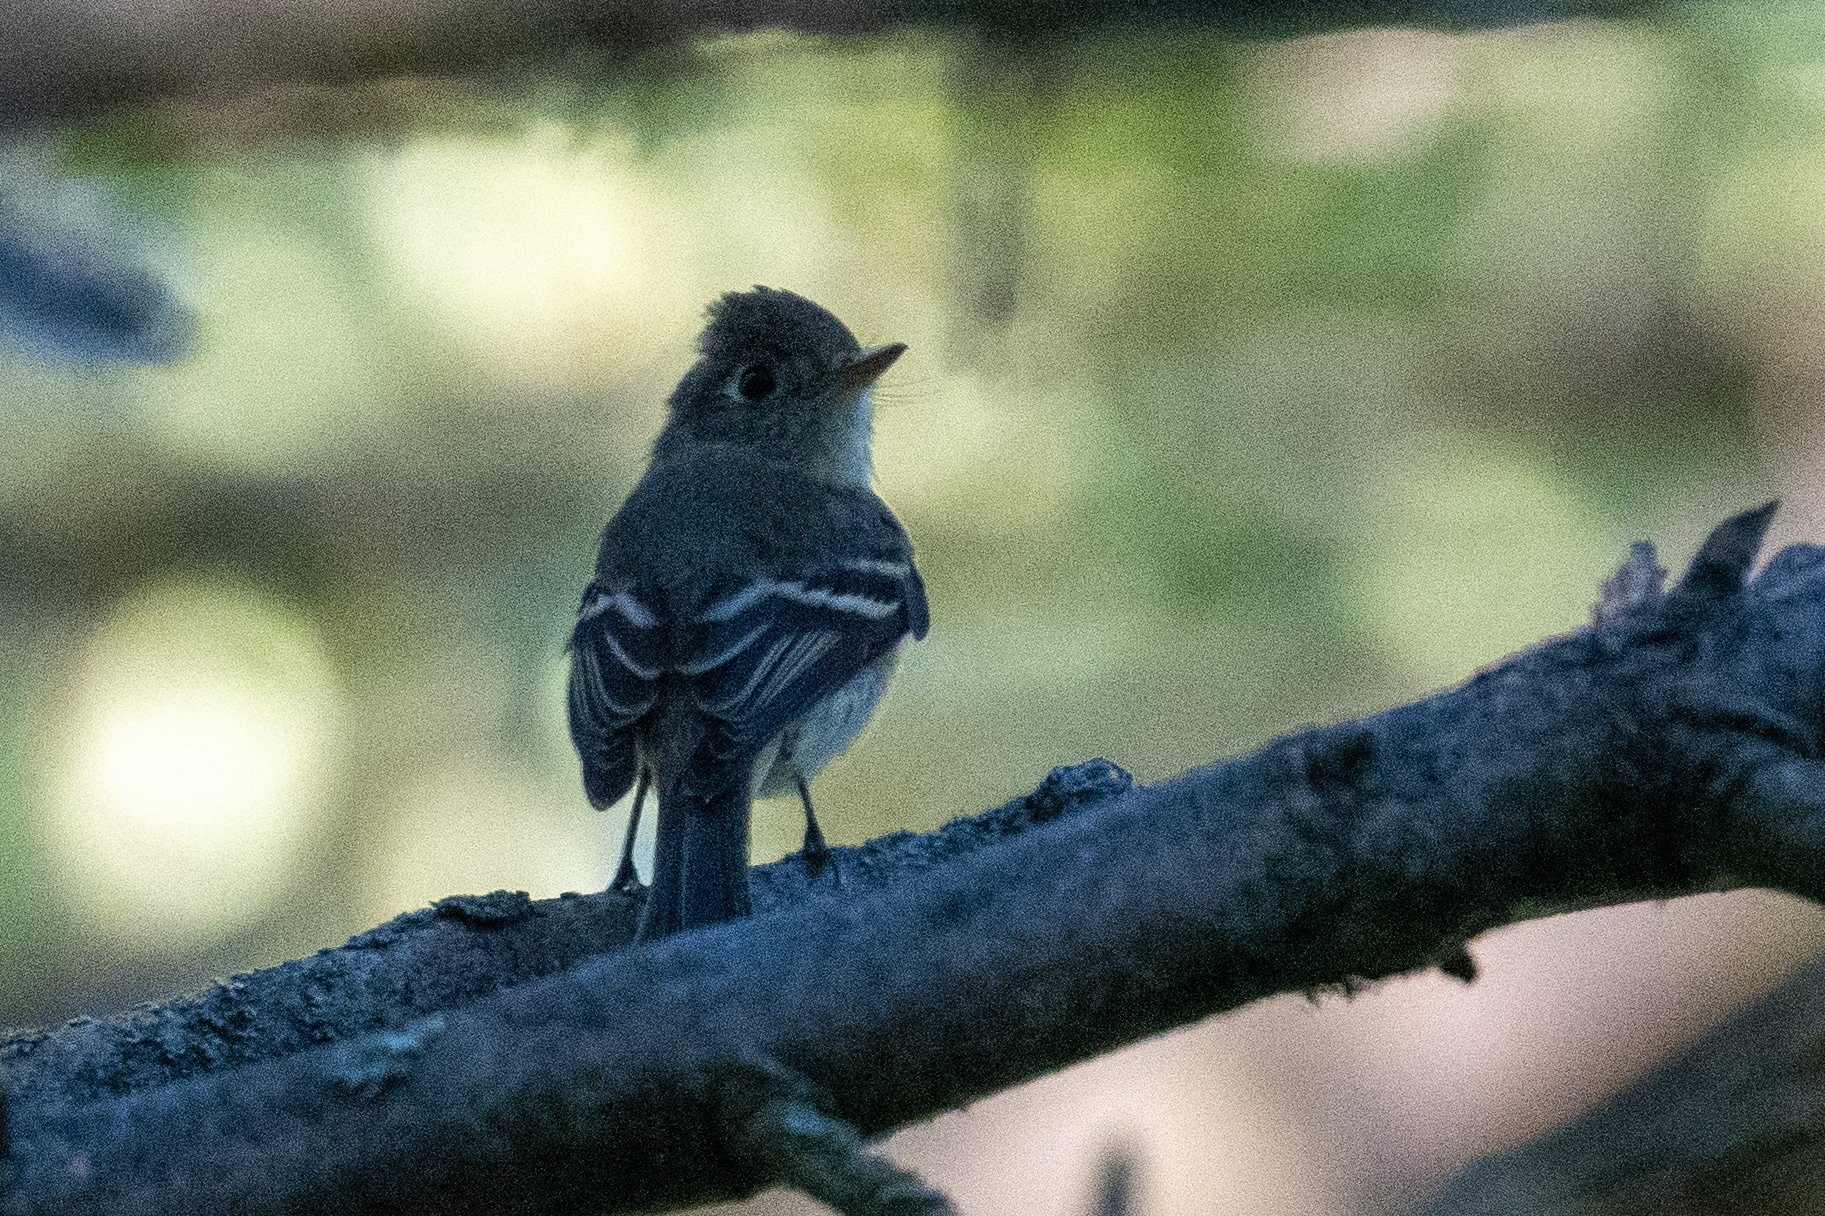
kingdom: Animalia
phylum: Chordata
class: Aves
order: Passeriformes
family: Tyrannidae
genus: Empidonax
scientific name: Empidonax hammondii
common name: Hammond's flycatcher
